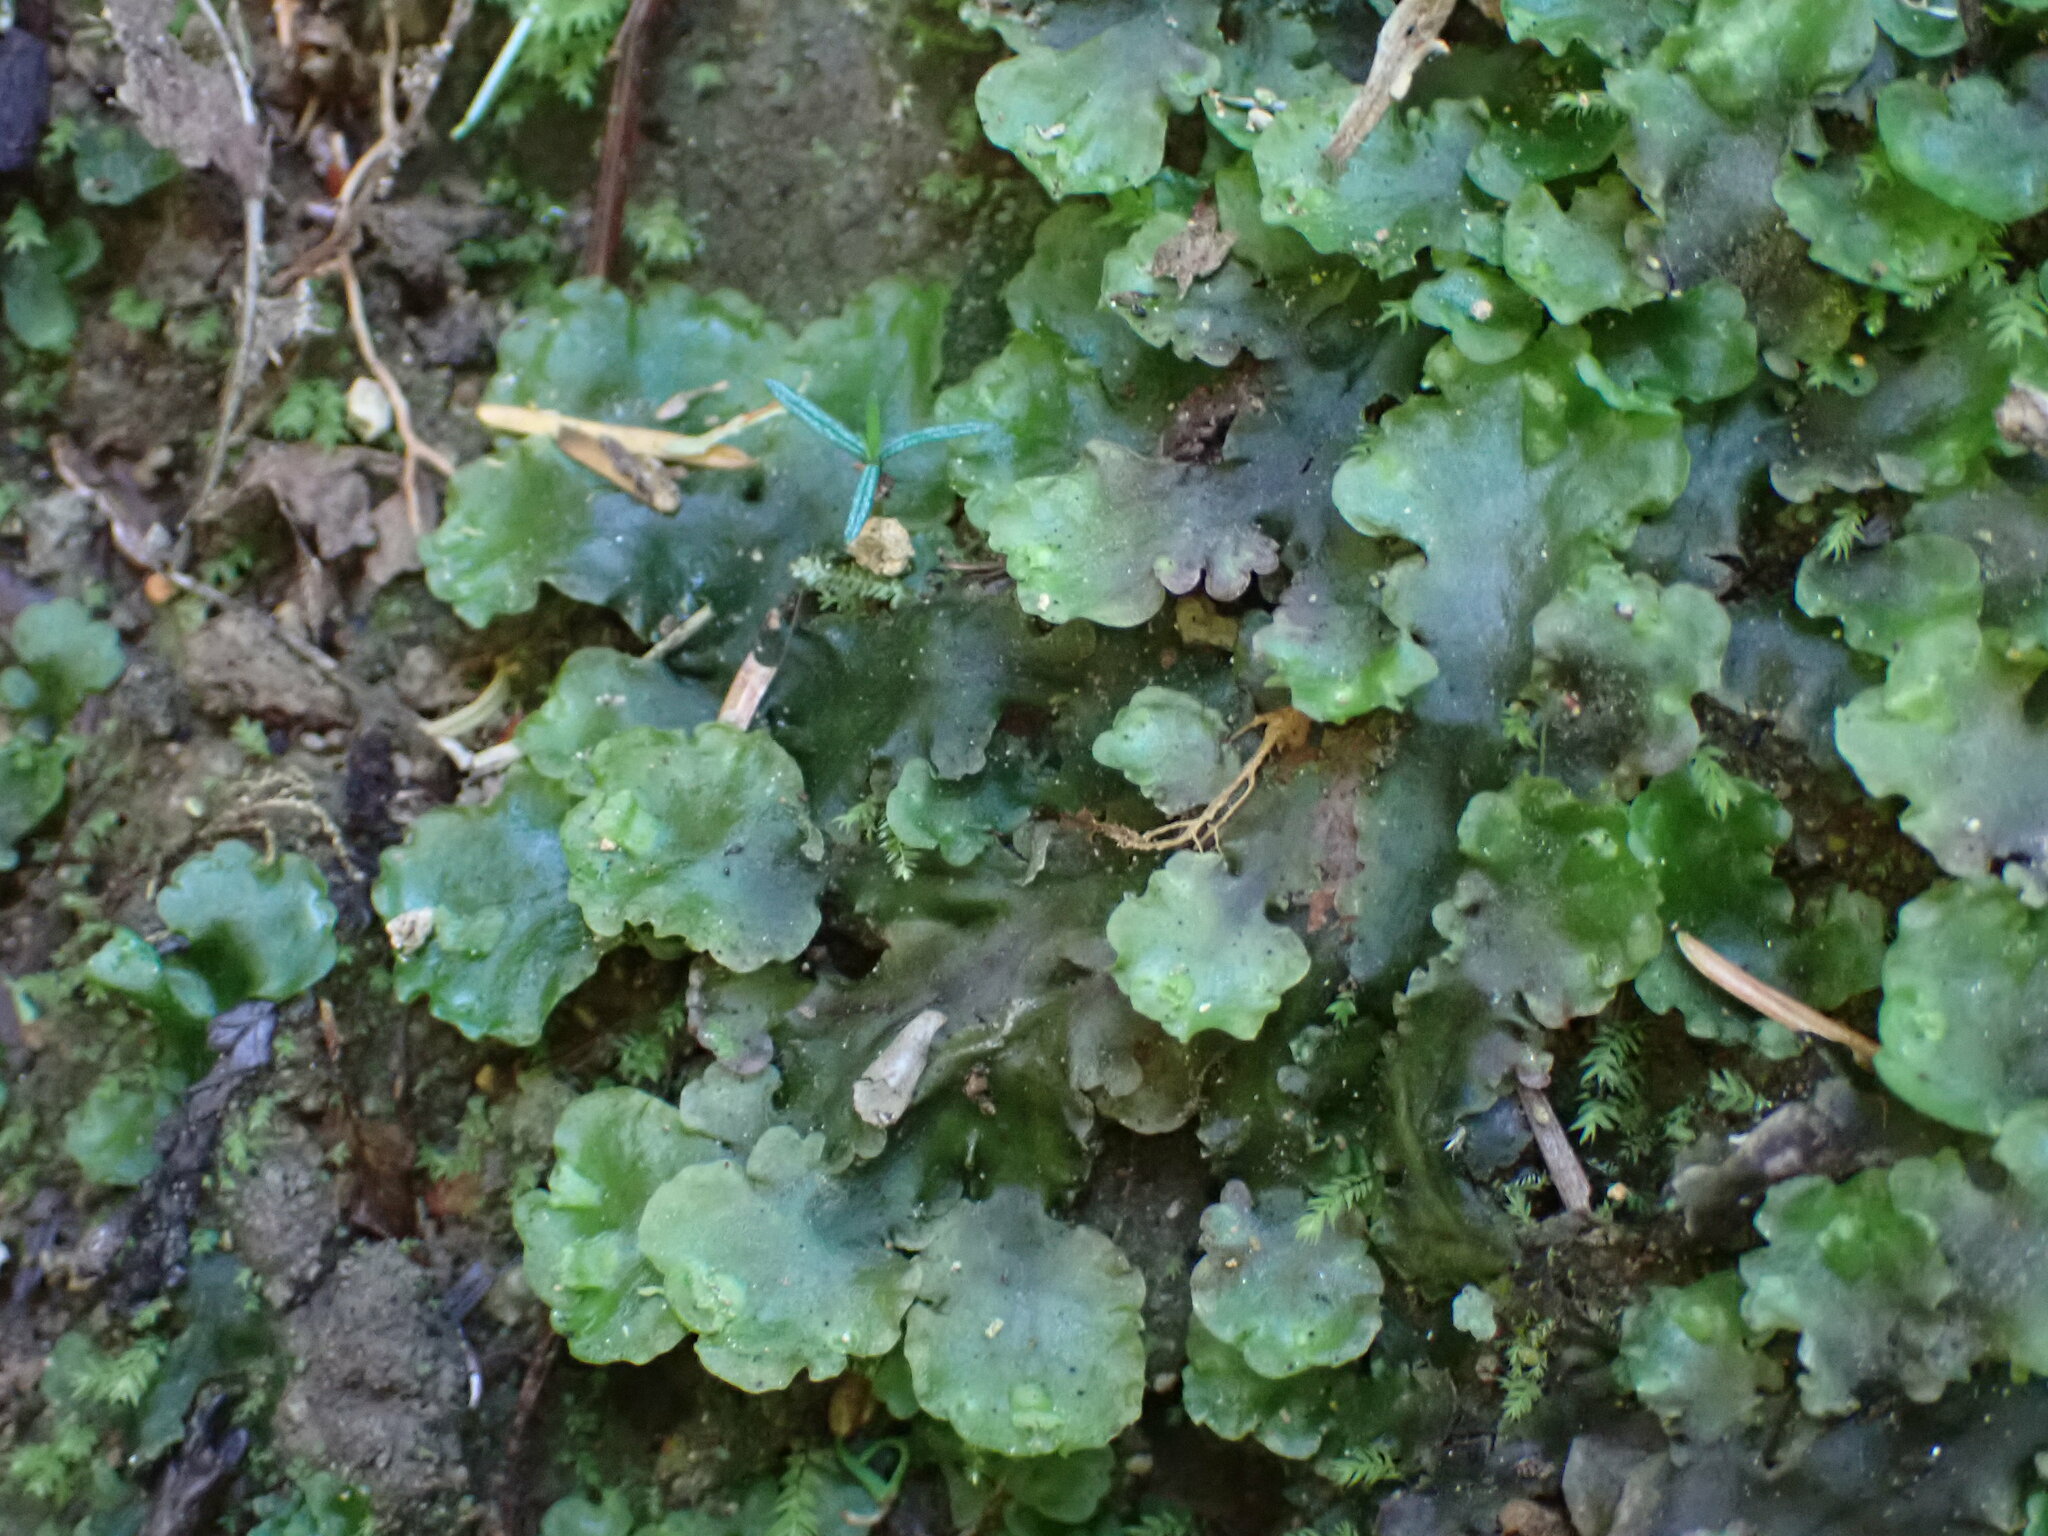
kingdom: Plantae
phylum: Marchantiophyta
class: Jungermanniopsida
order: Pelliales
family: Pelliaceae
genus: Pellia
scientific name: Pellia neesiana
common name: Nees  pellia
